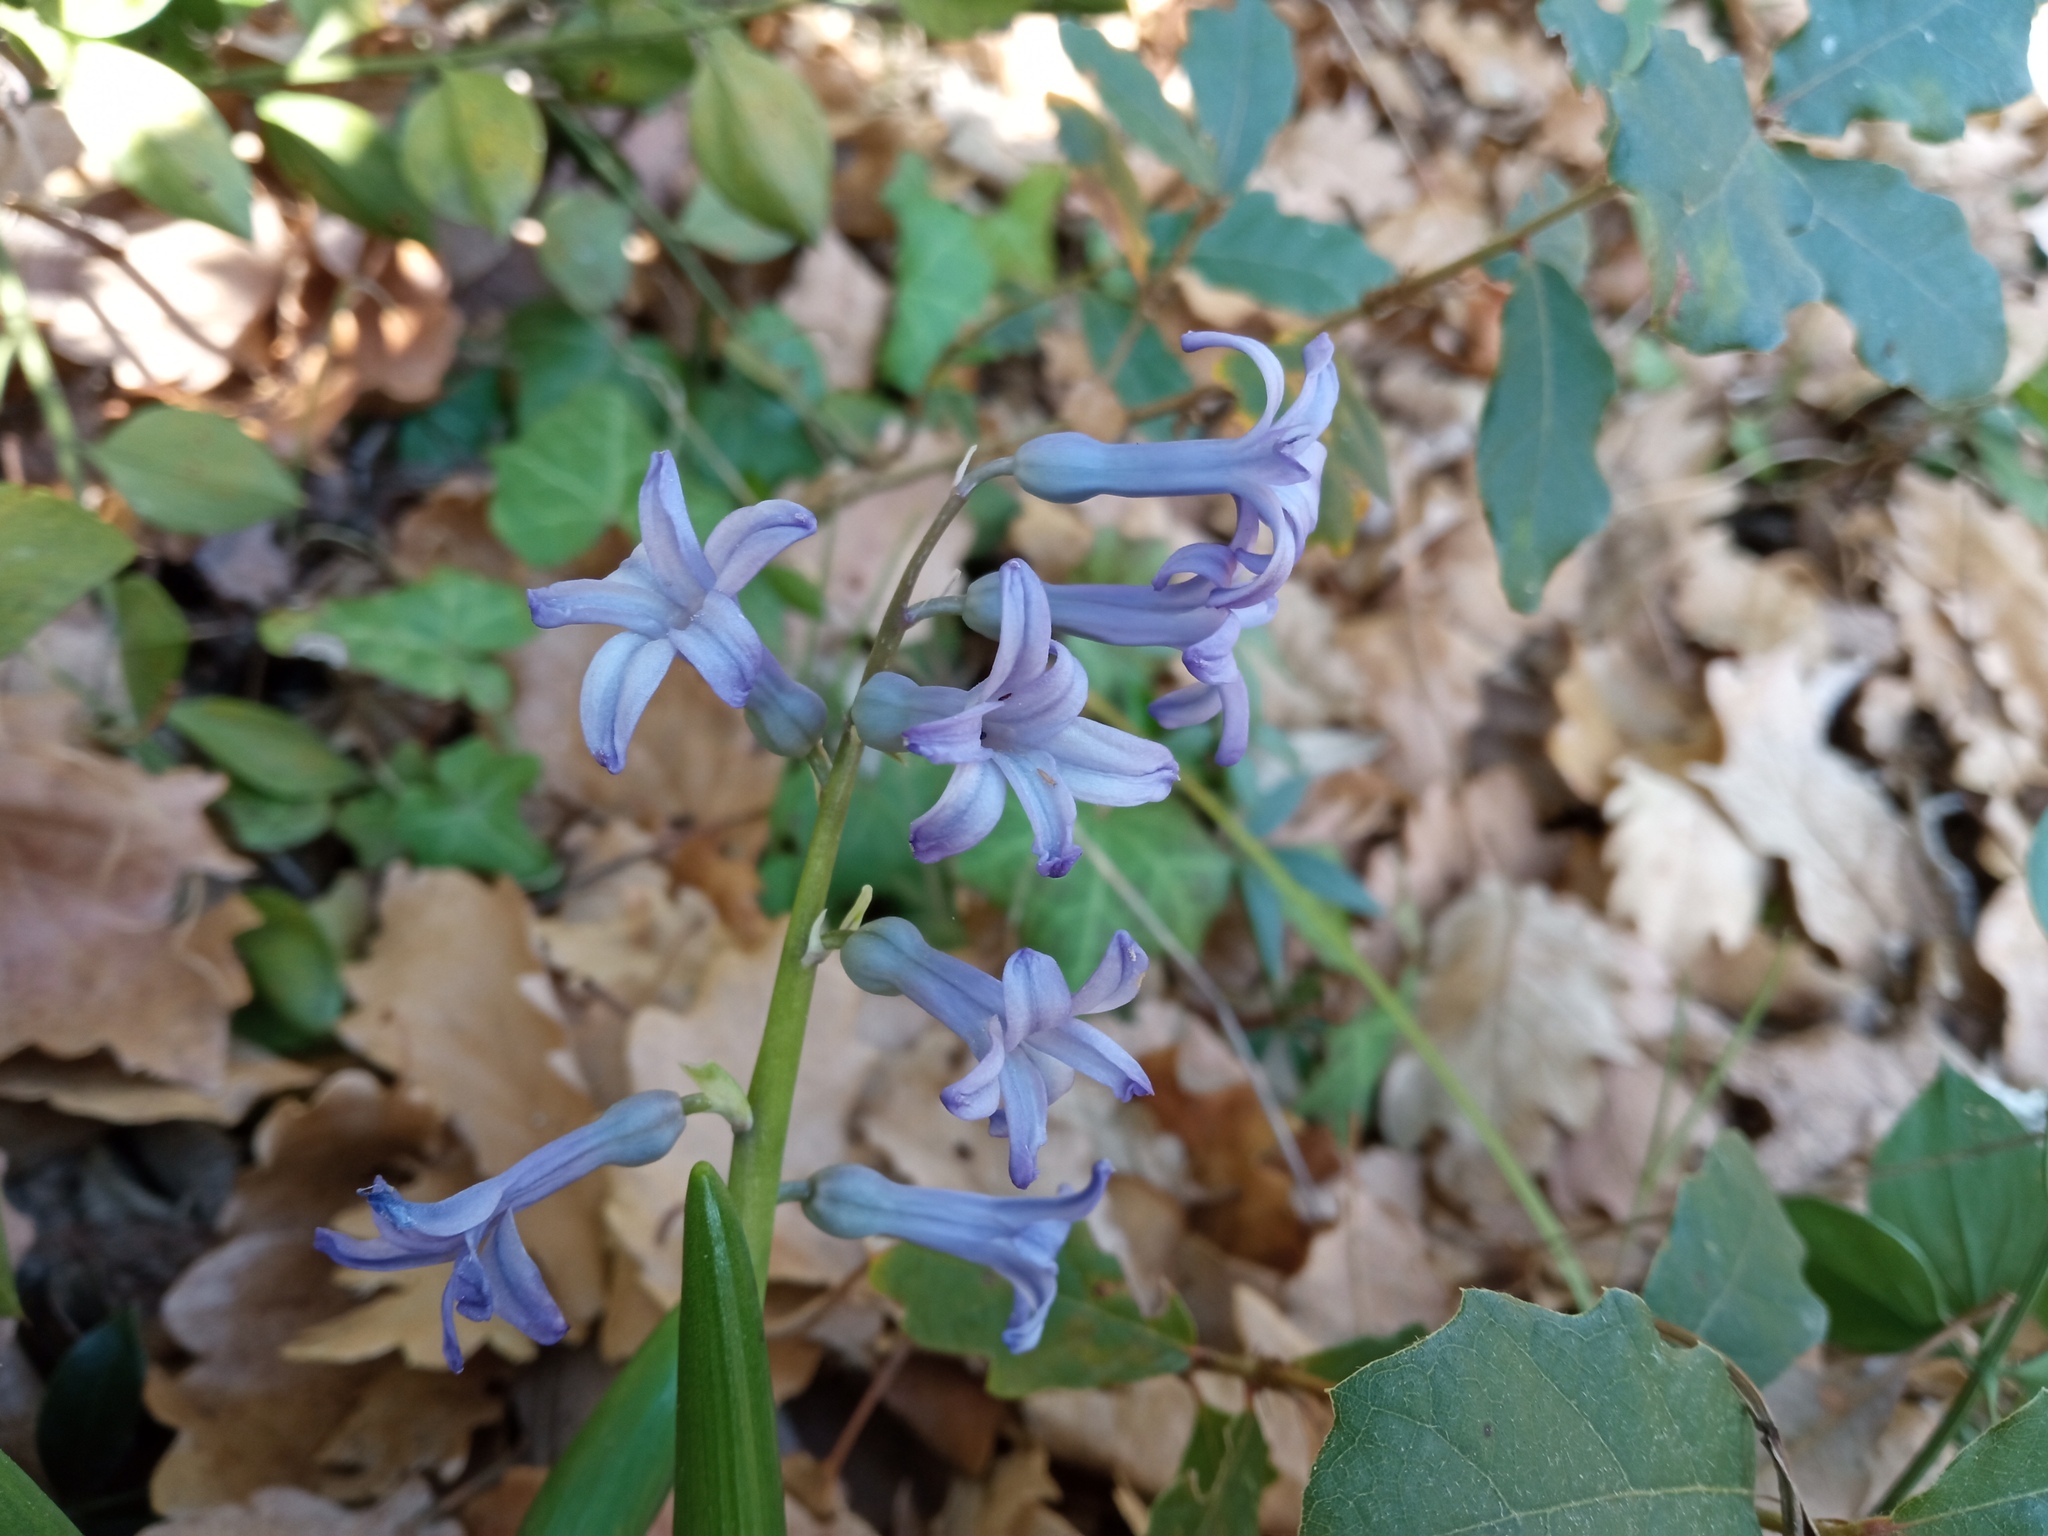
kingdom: Plantae
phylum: Tracheophyta
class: Liliopsida
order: Asparagales
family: Asparagaceae
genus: Hyacinthus
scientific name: Hyacinthus orientalis
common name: Hyacinth
